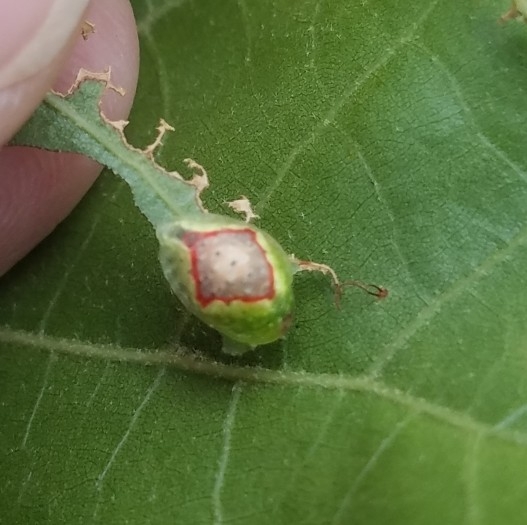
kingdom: Animalia
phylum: Arthropoda
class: Insecta
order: Lepidoptera
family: Limacodidae
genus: Tortricidia
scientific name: Tortricidia testacea
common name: Early button slug moth
